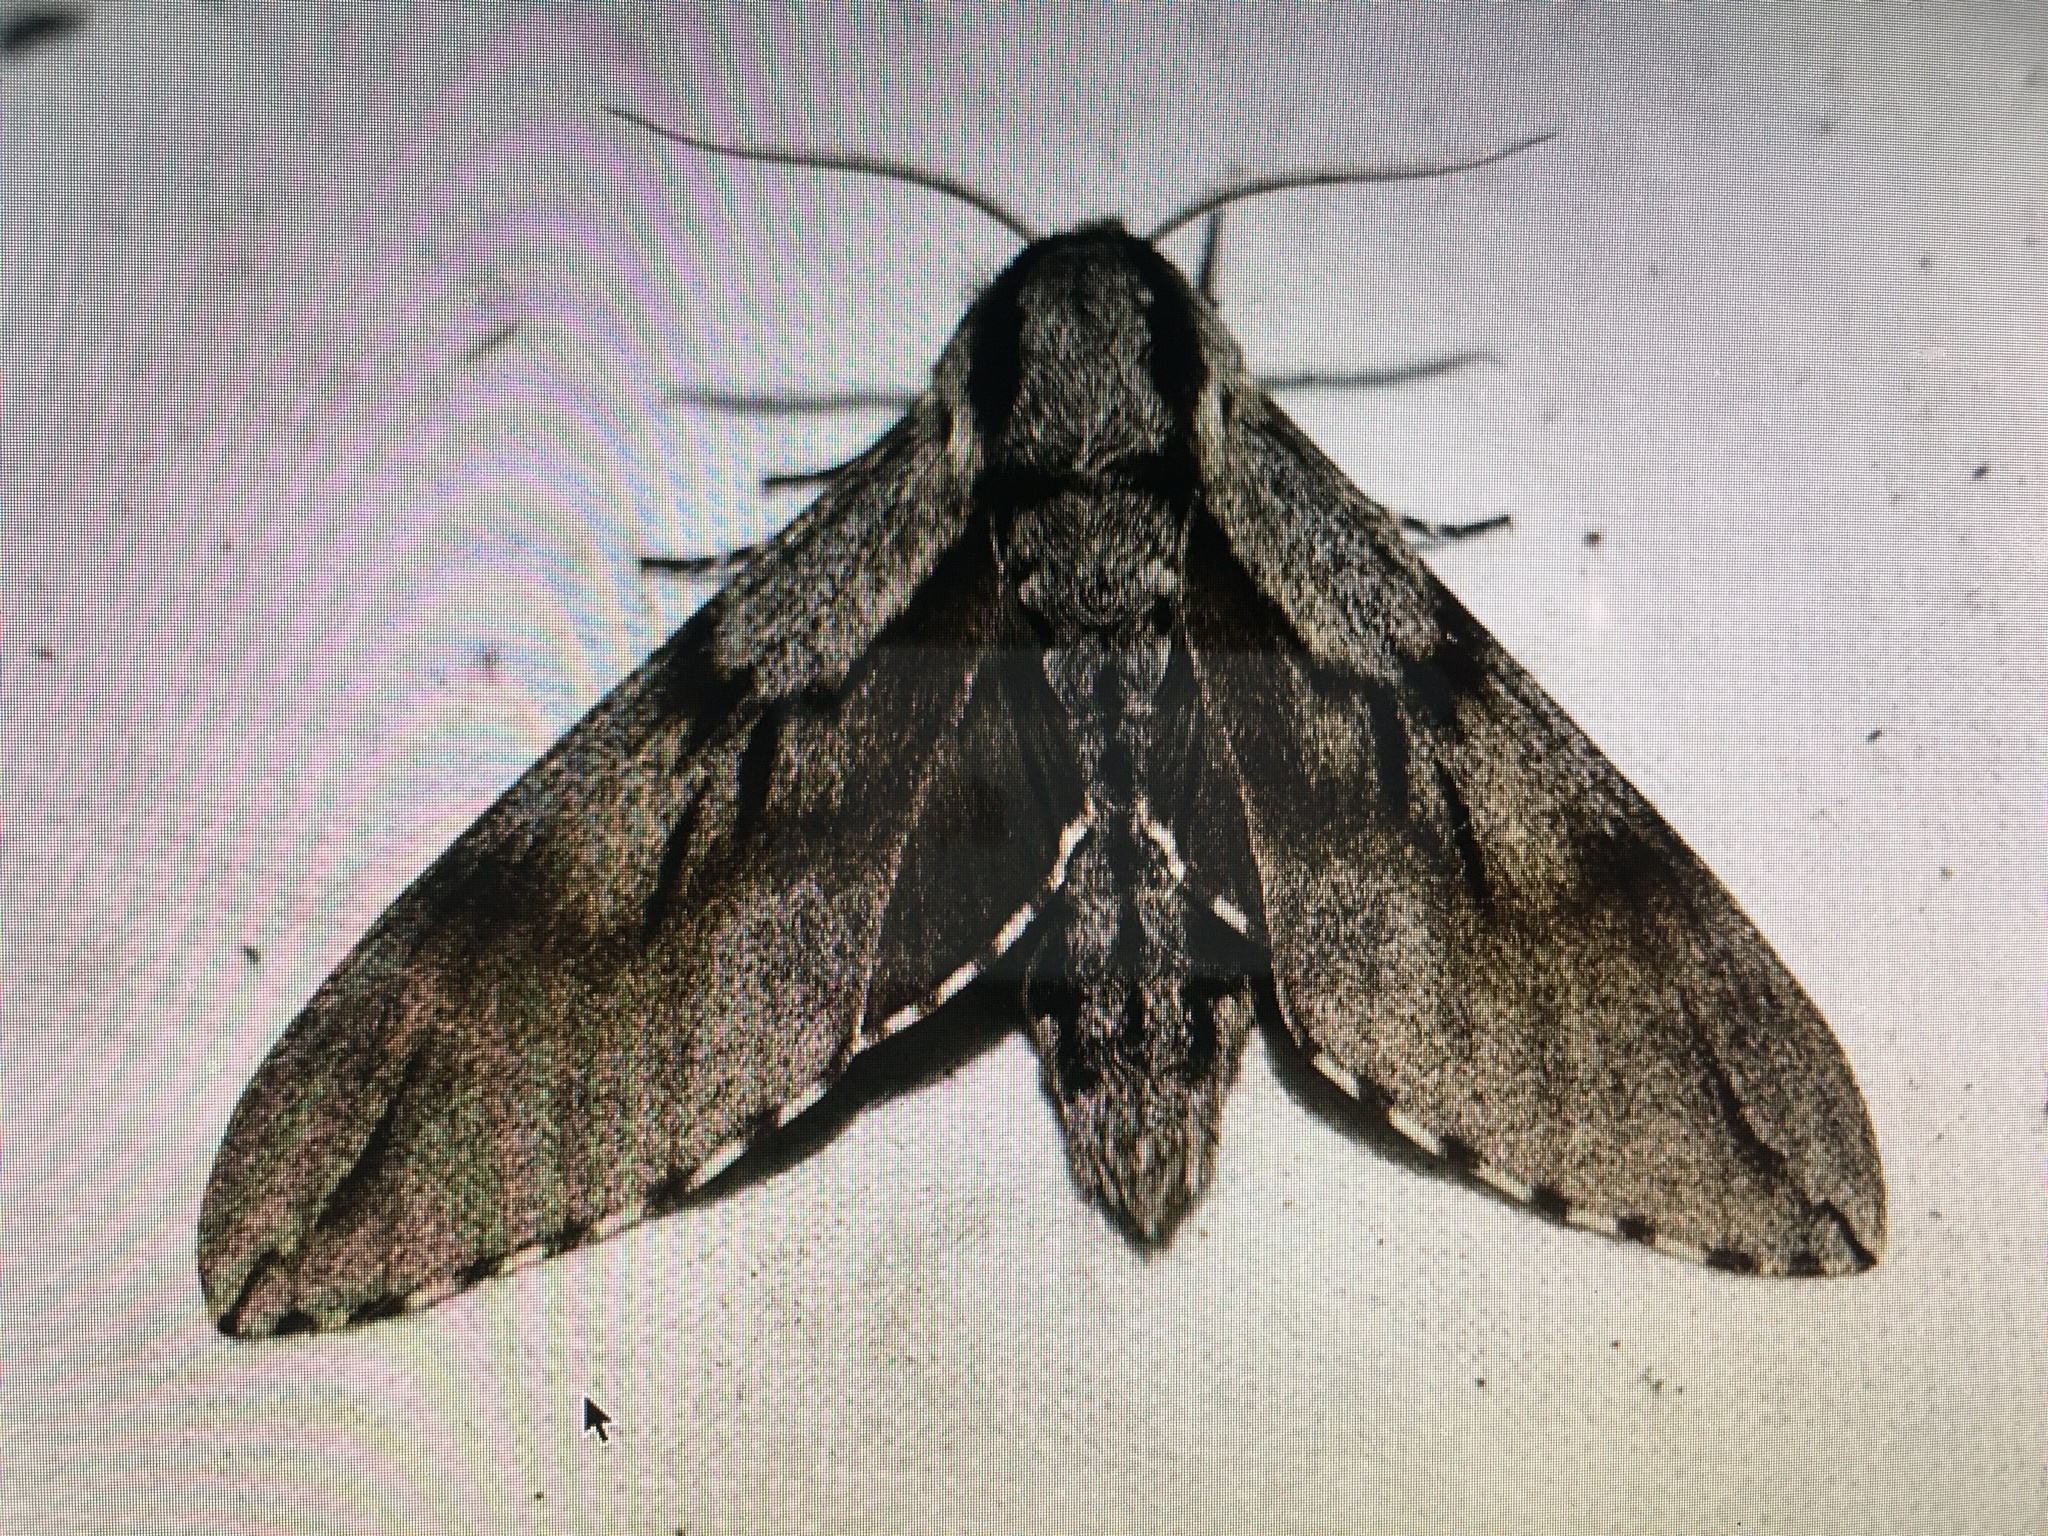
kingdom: Animalia
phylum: Arthropoda
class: Insecta
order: Lepidoptera
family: Sphingidae
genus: Sphinx
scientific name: Sphinx pinastri
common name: Pine hawk-moth
